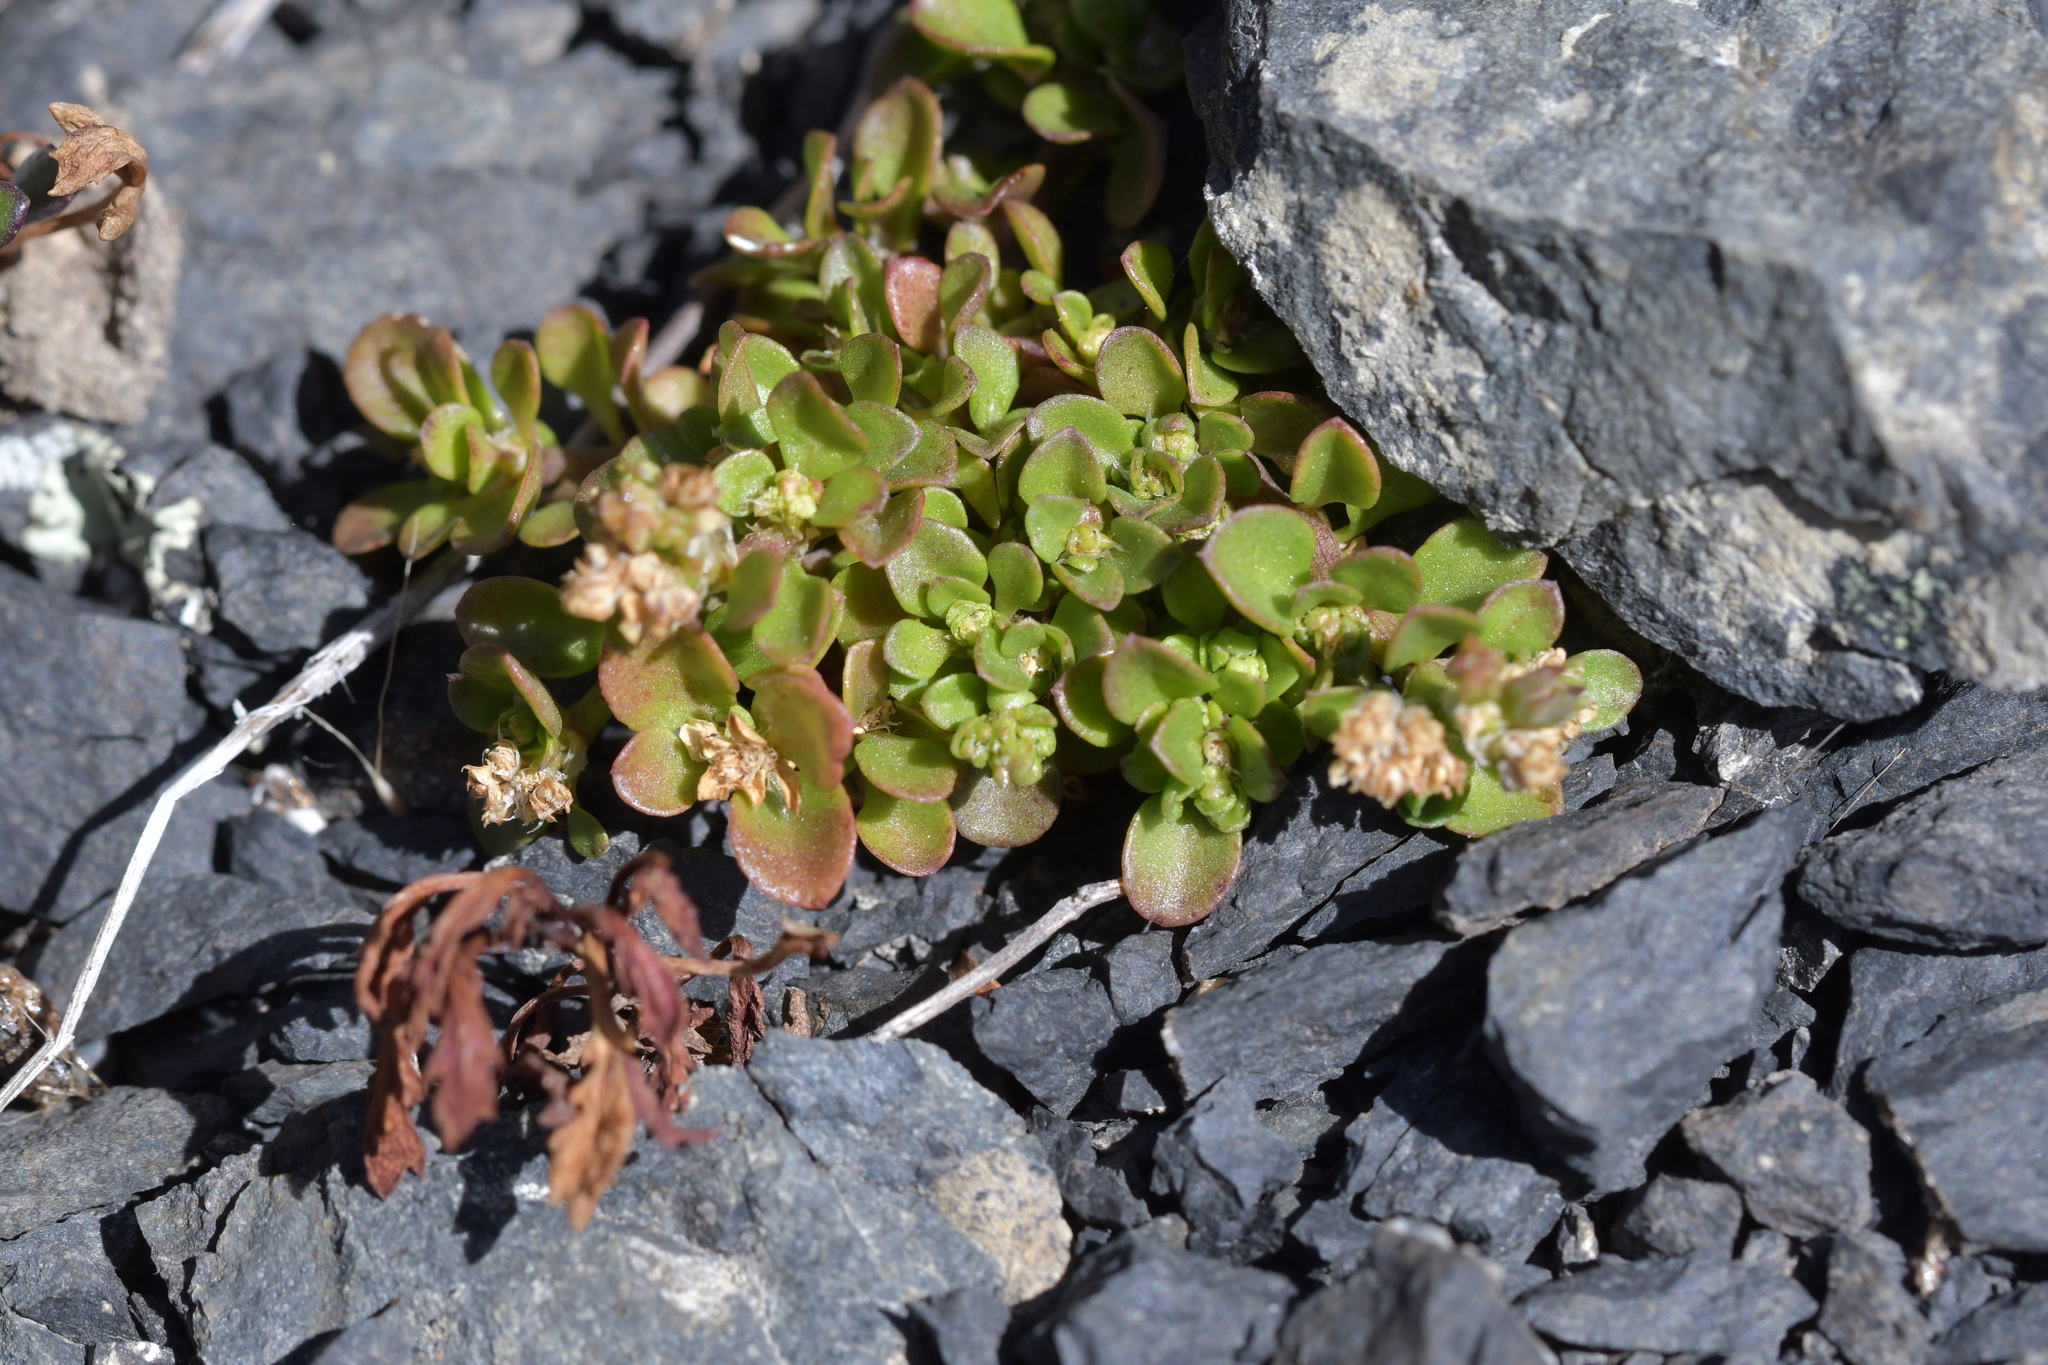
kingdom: Plantae
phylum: Tracheophyta
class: Magnoliopsida
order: Caryophyllales
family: Caryophyllaceae
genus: Polycarpon
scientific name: Polycarpon tetraphyllum
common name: Four-leaved all-seed
